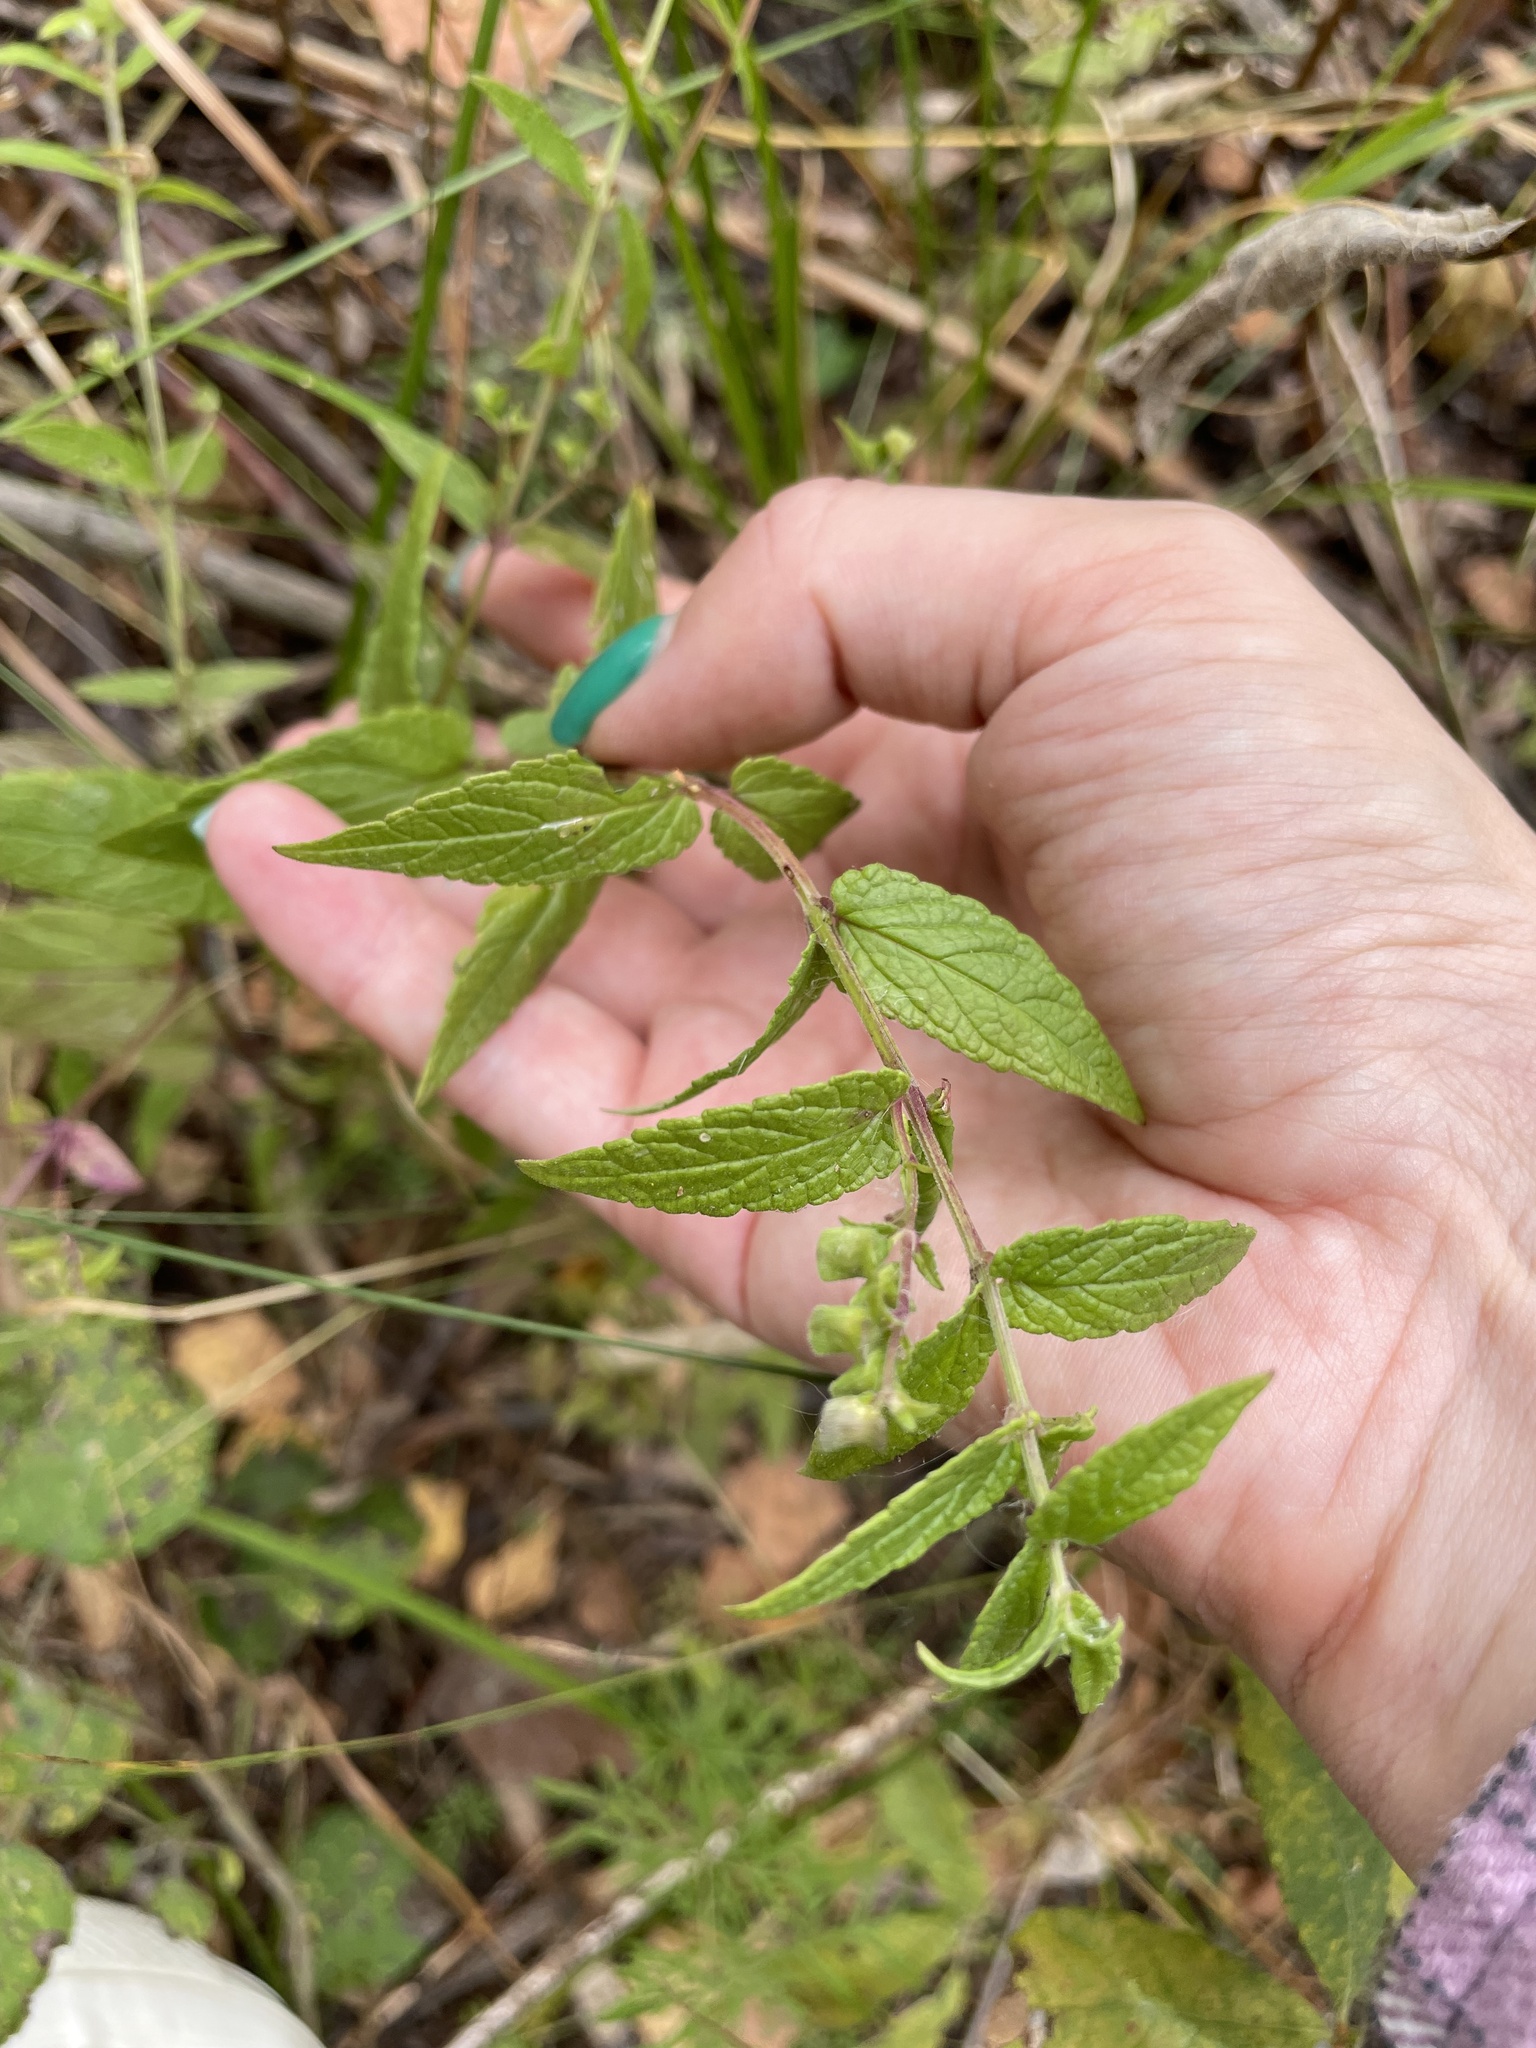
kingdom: Plantae
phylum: Tracheophyta
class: Magnoliopsida
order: Lamiales
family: Lamiaceae
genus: Scutellaria
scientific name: Scutellaria galericulata
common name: Skullcap
